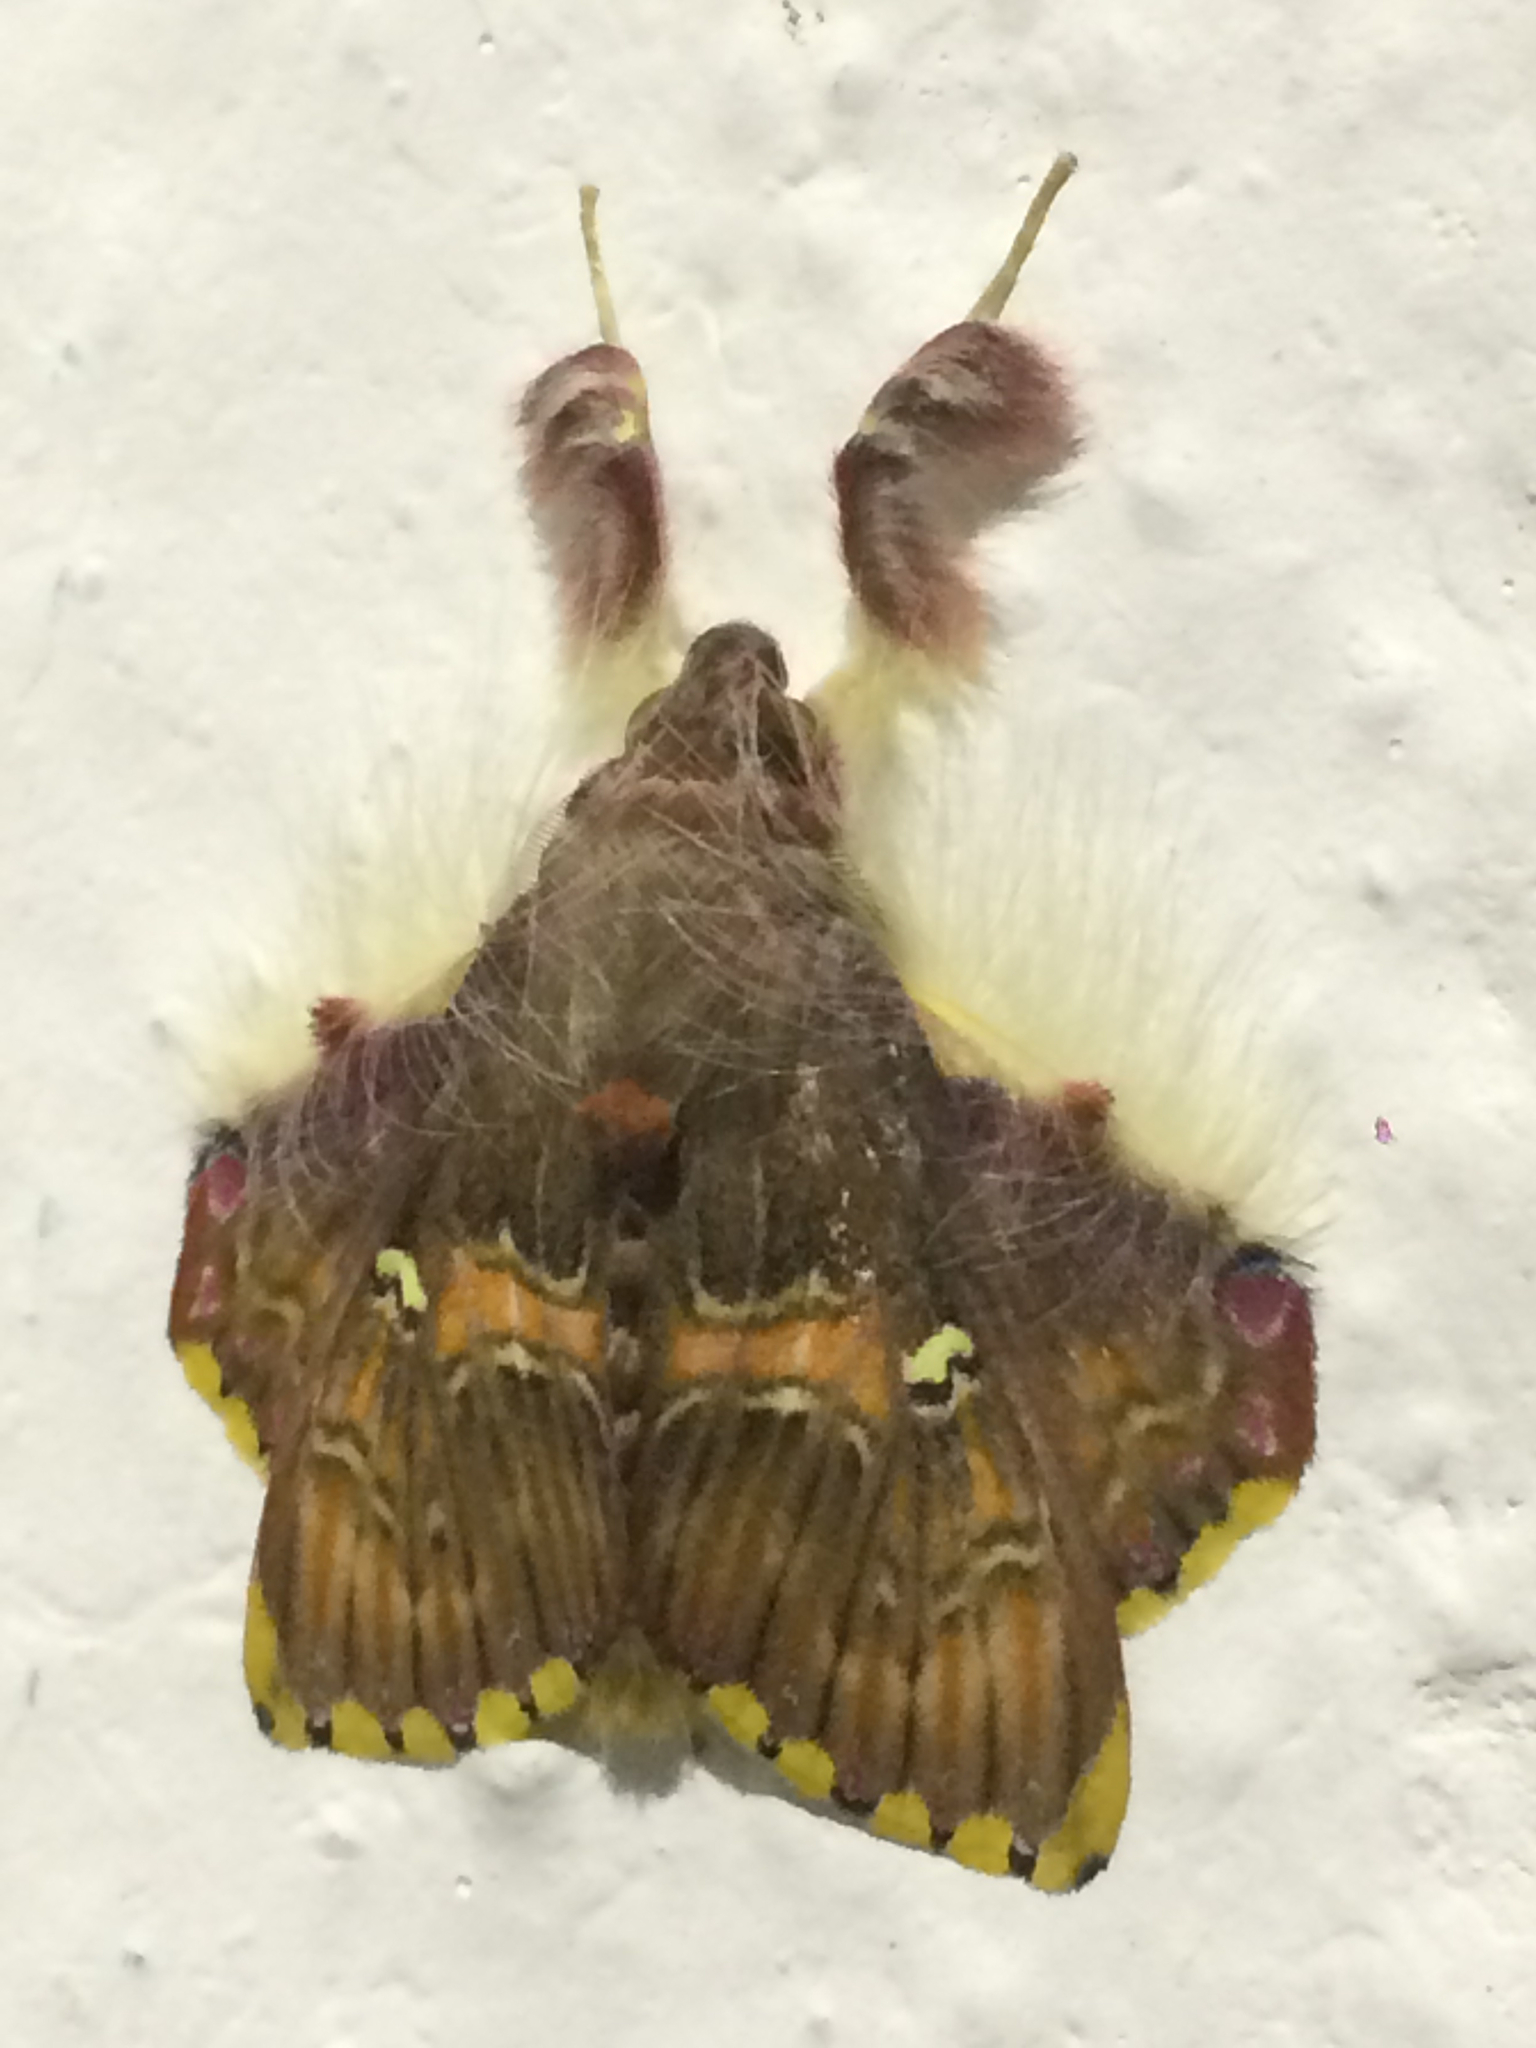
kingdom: Animalia
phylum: Arthropoda
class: Insecta
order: Lepidoptera
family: Erebidae
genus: Sosxetra
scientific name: Sosxetra grata
